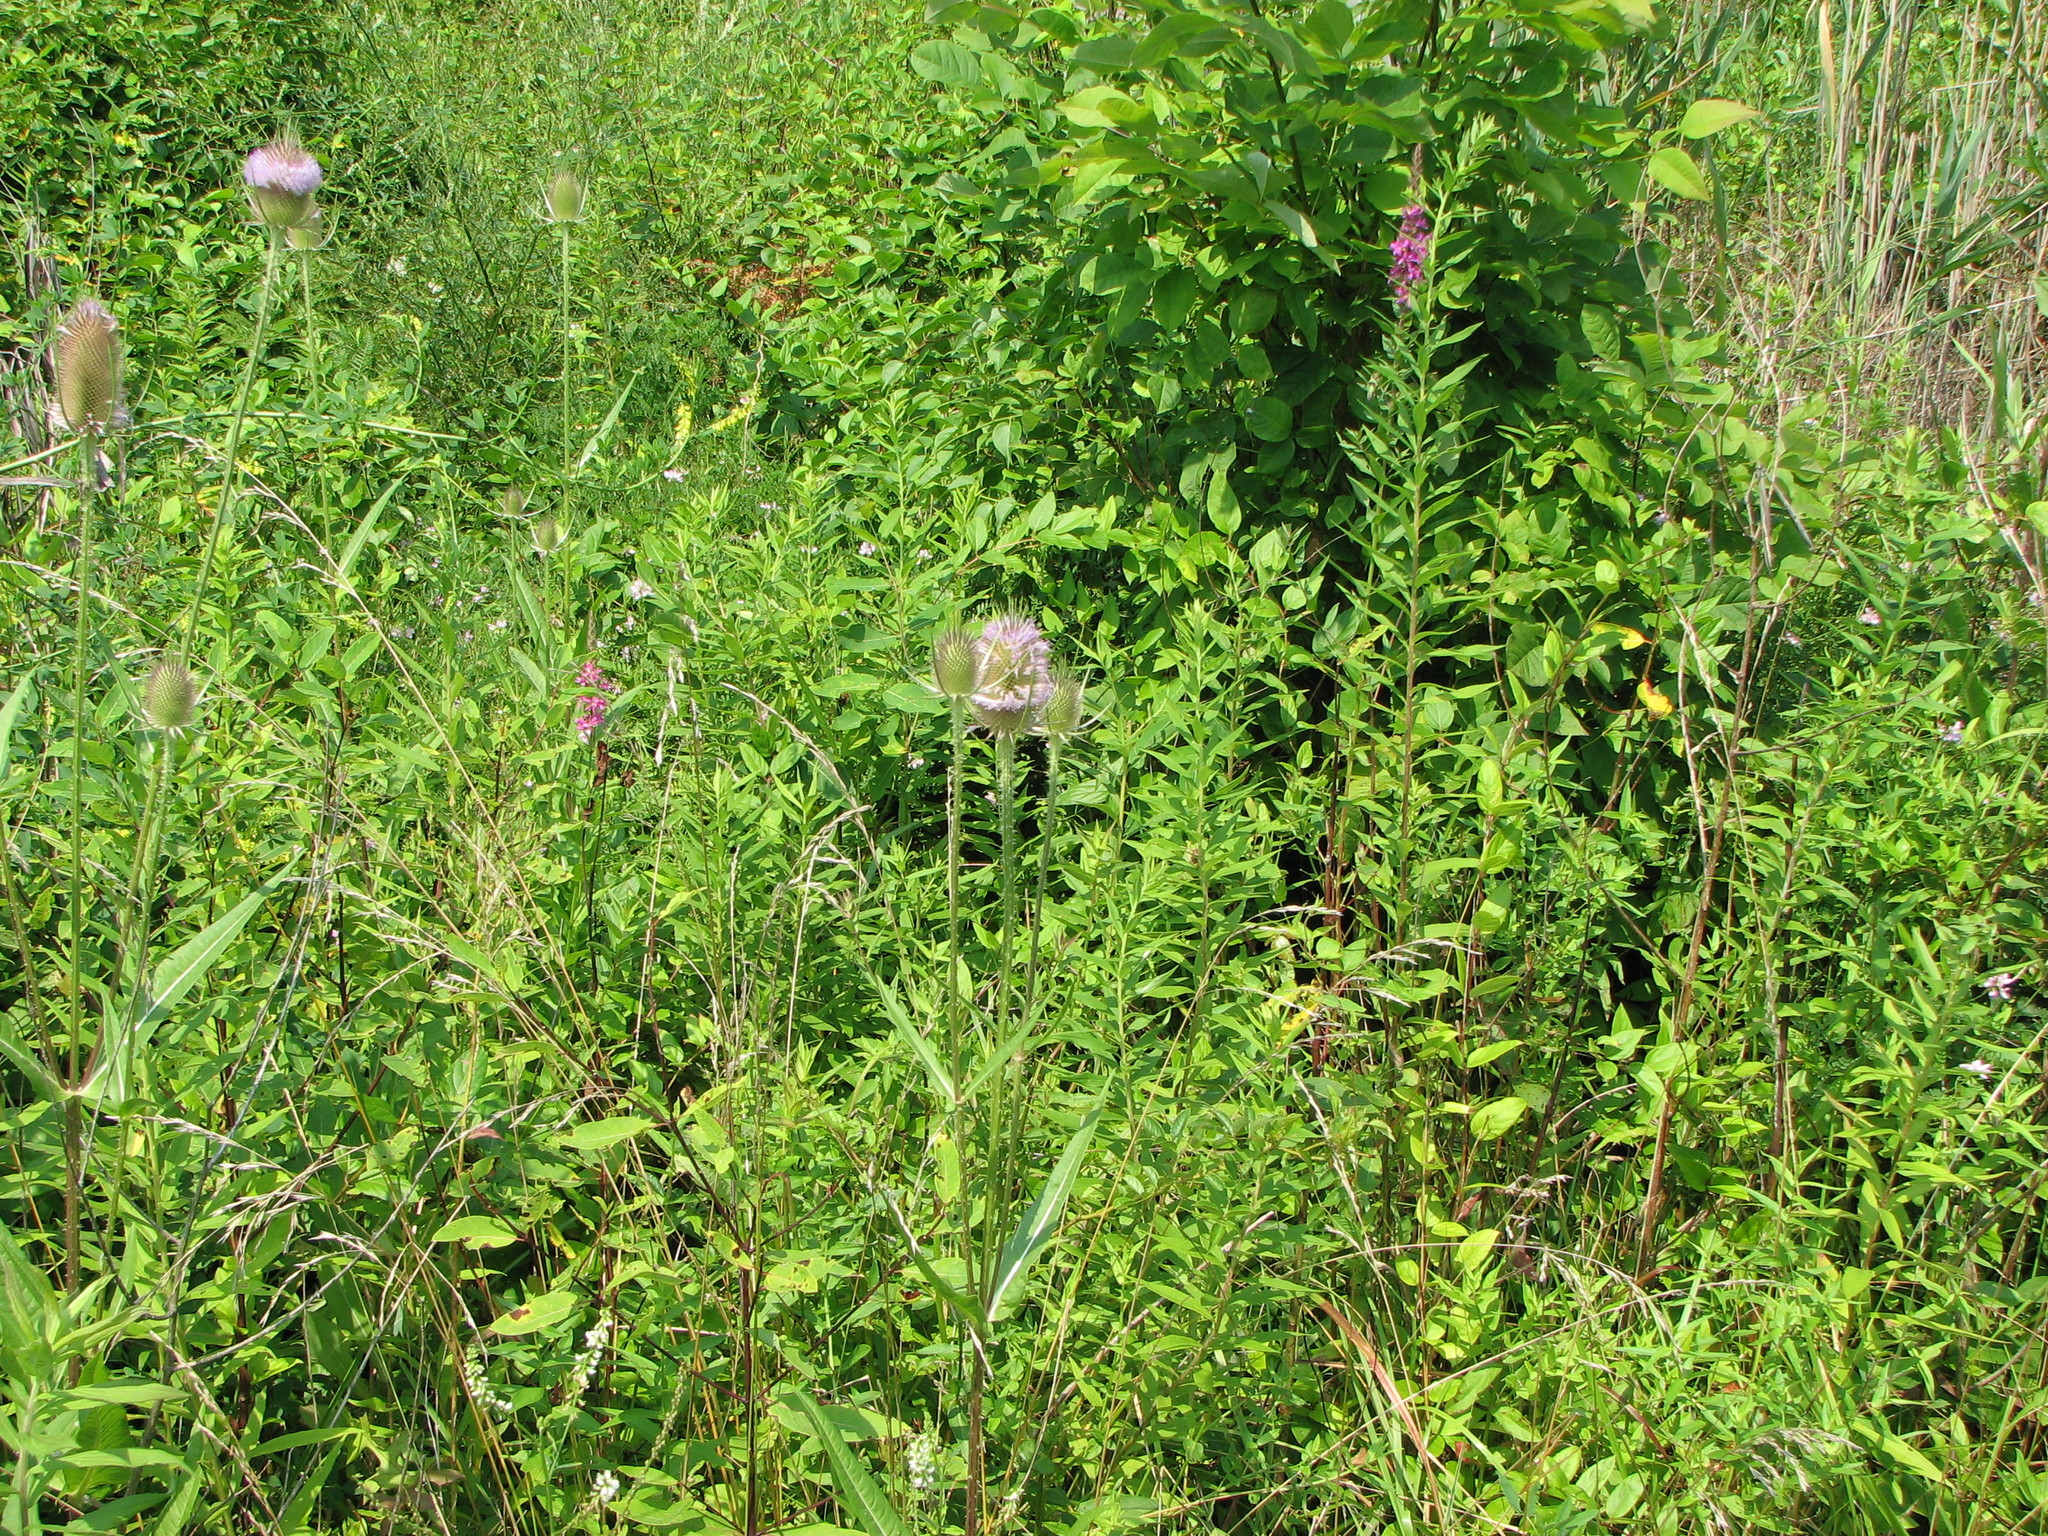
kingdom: Plantae
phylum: Tracheophyta
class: Magnoliopsida
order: Dipsacales
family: Caprifoliaceae
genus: Dipsacus
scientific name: Dipsacus fullonum
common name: Teasel
